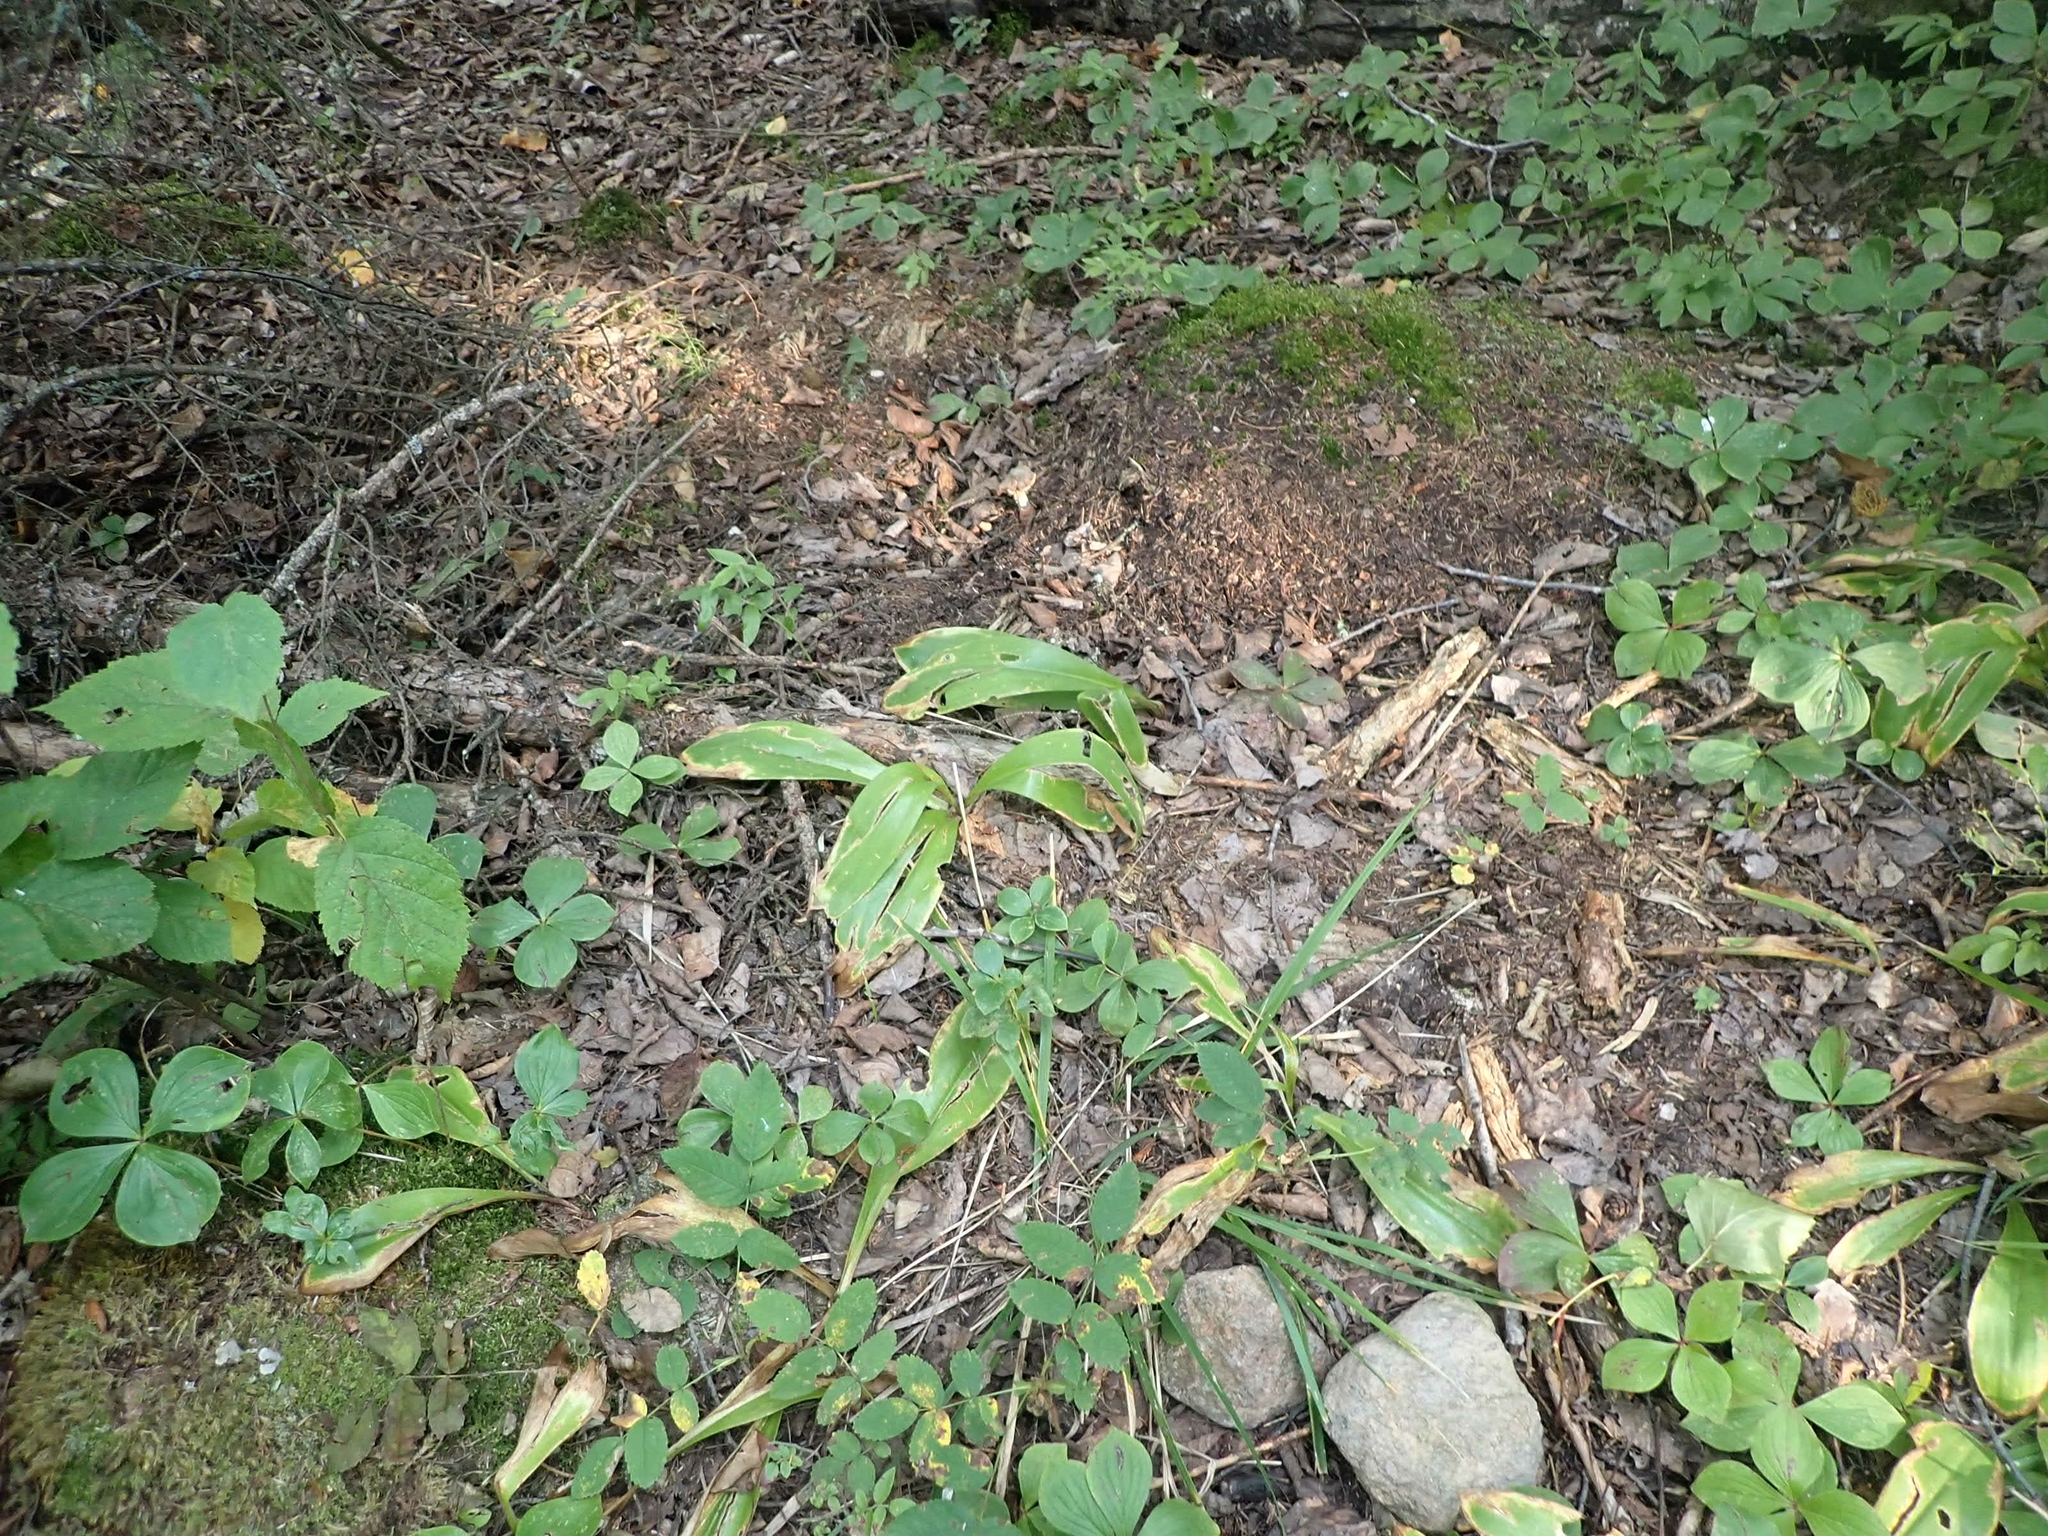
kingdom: Plantae
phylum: Tracheophyta
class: Liliopsida
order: Liliales
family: Liliaceae
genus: Clintonia
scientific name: Clintonia borealis
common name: Yellow clintonia
